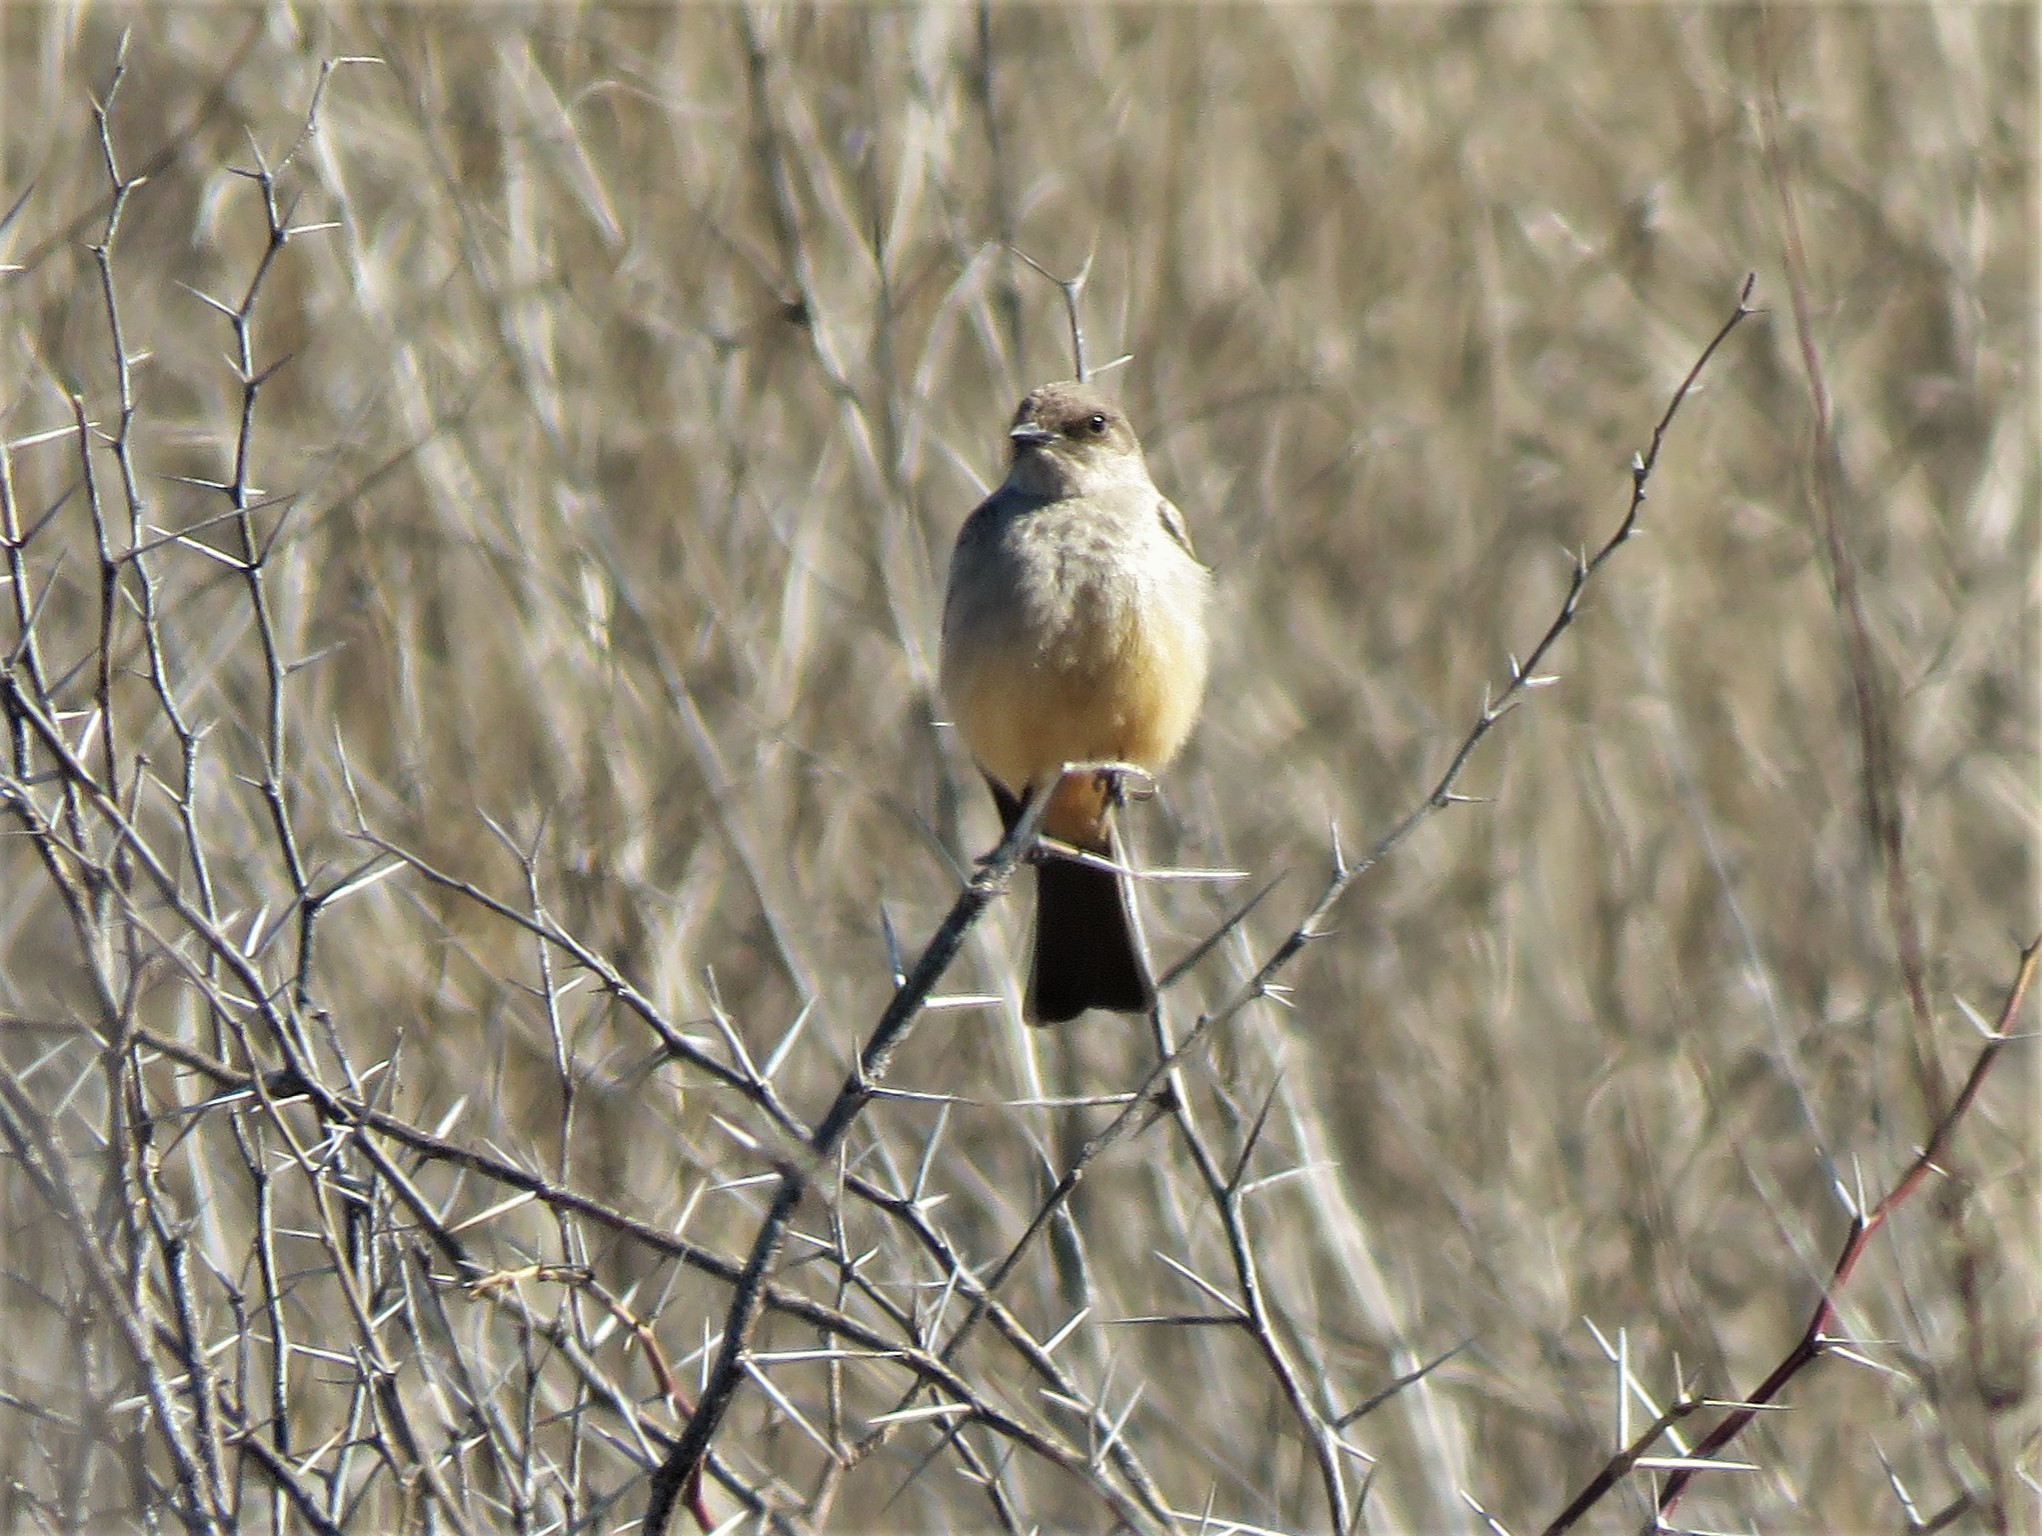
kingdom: Animalia
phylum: Chordata
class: Aves
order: Passeriformes
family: Tyrannidae
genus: Sayornis
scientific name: Sayornis saya
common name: Say's phoebe
